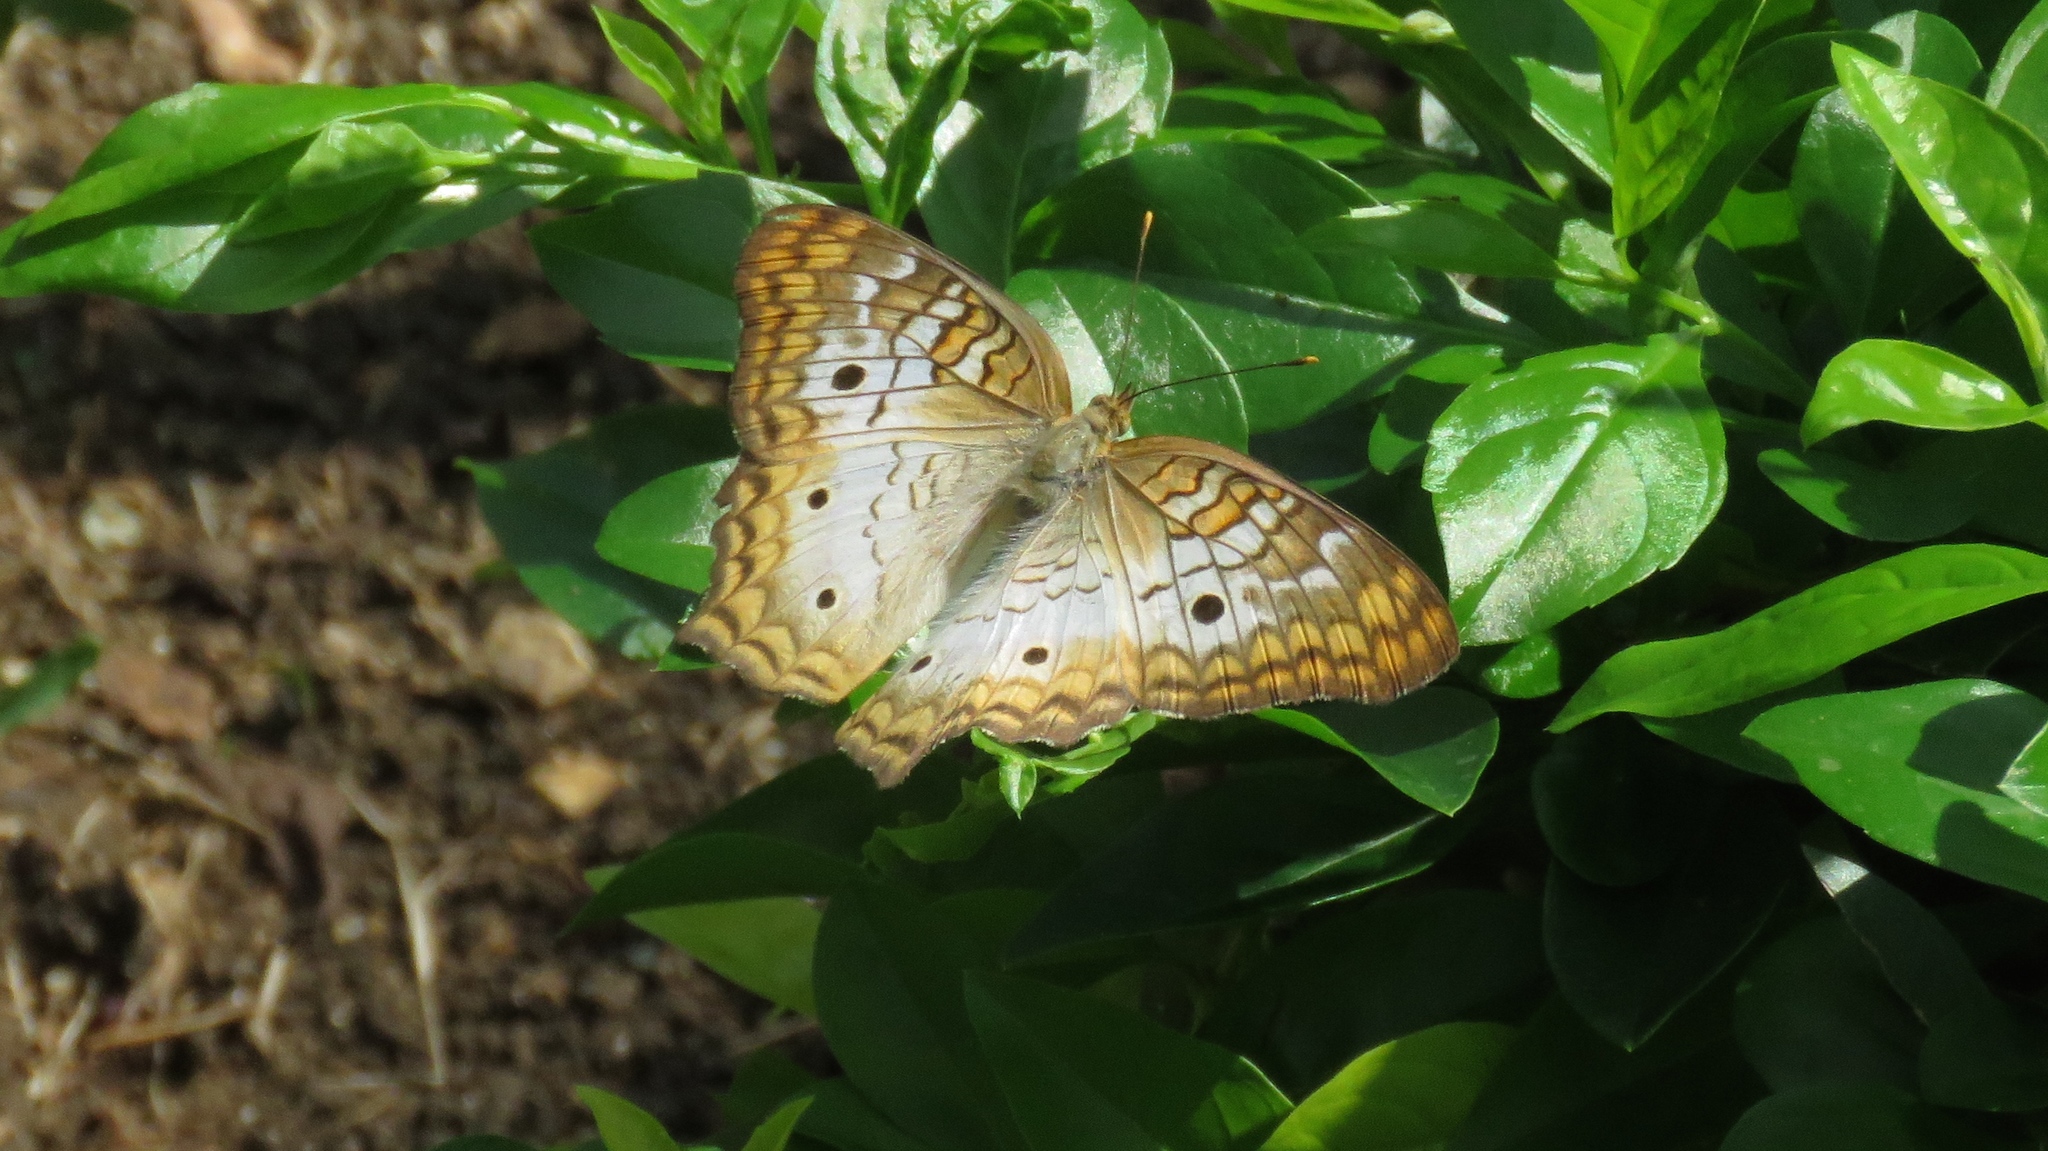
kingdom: Animalia
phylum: Arthropoda
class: Insecta
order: Lepidoptera
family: Nymphalidae
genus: Anartia
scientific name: Anartia jatrophae
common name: White peacock
